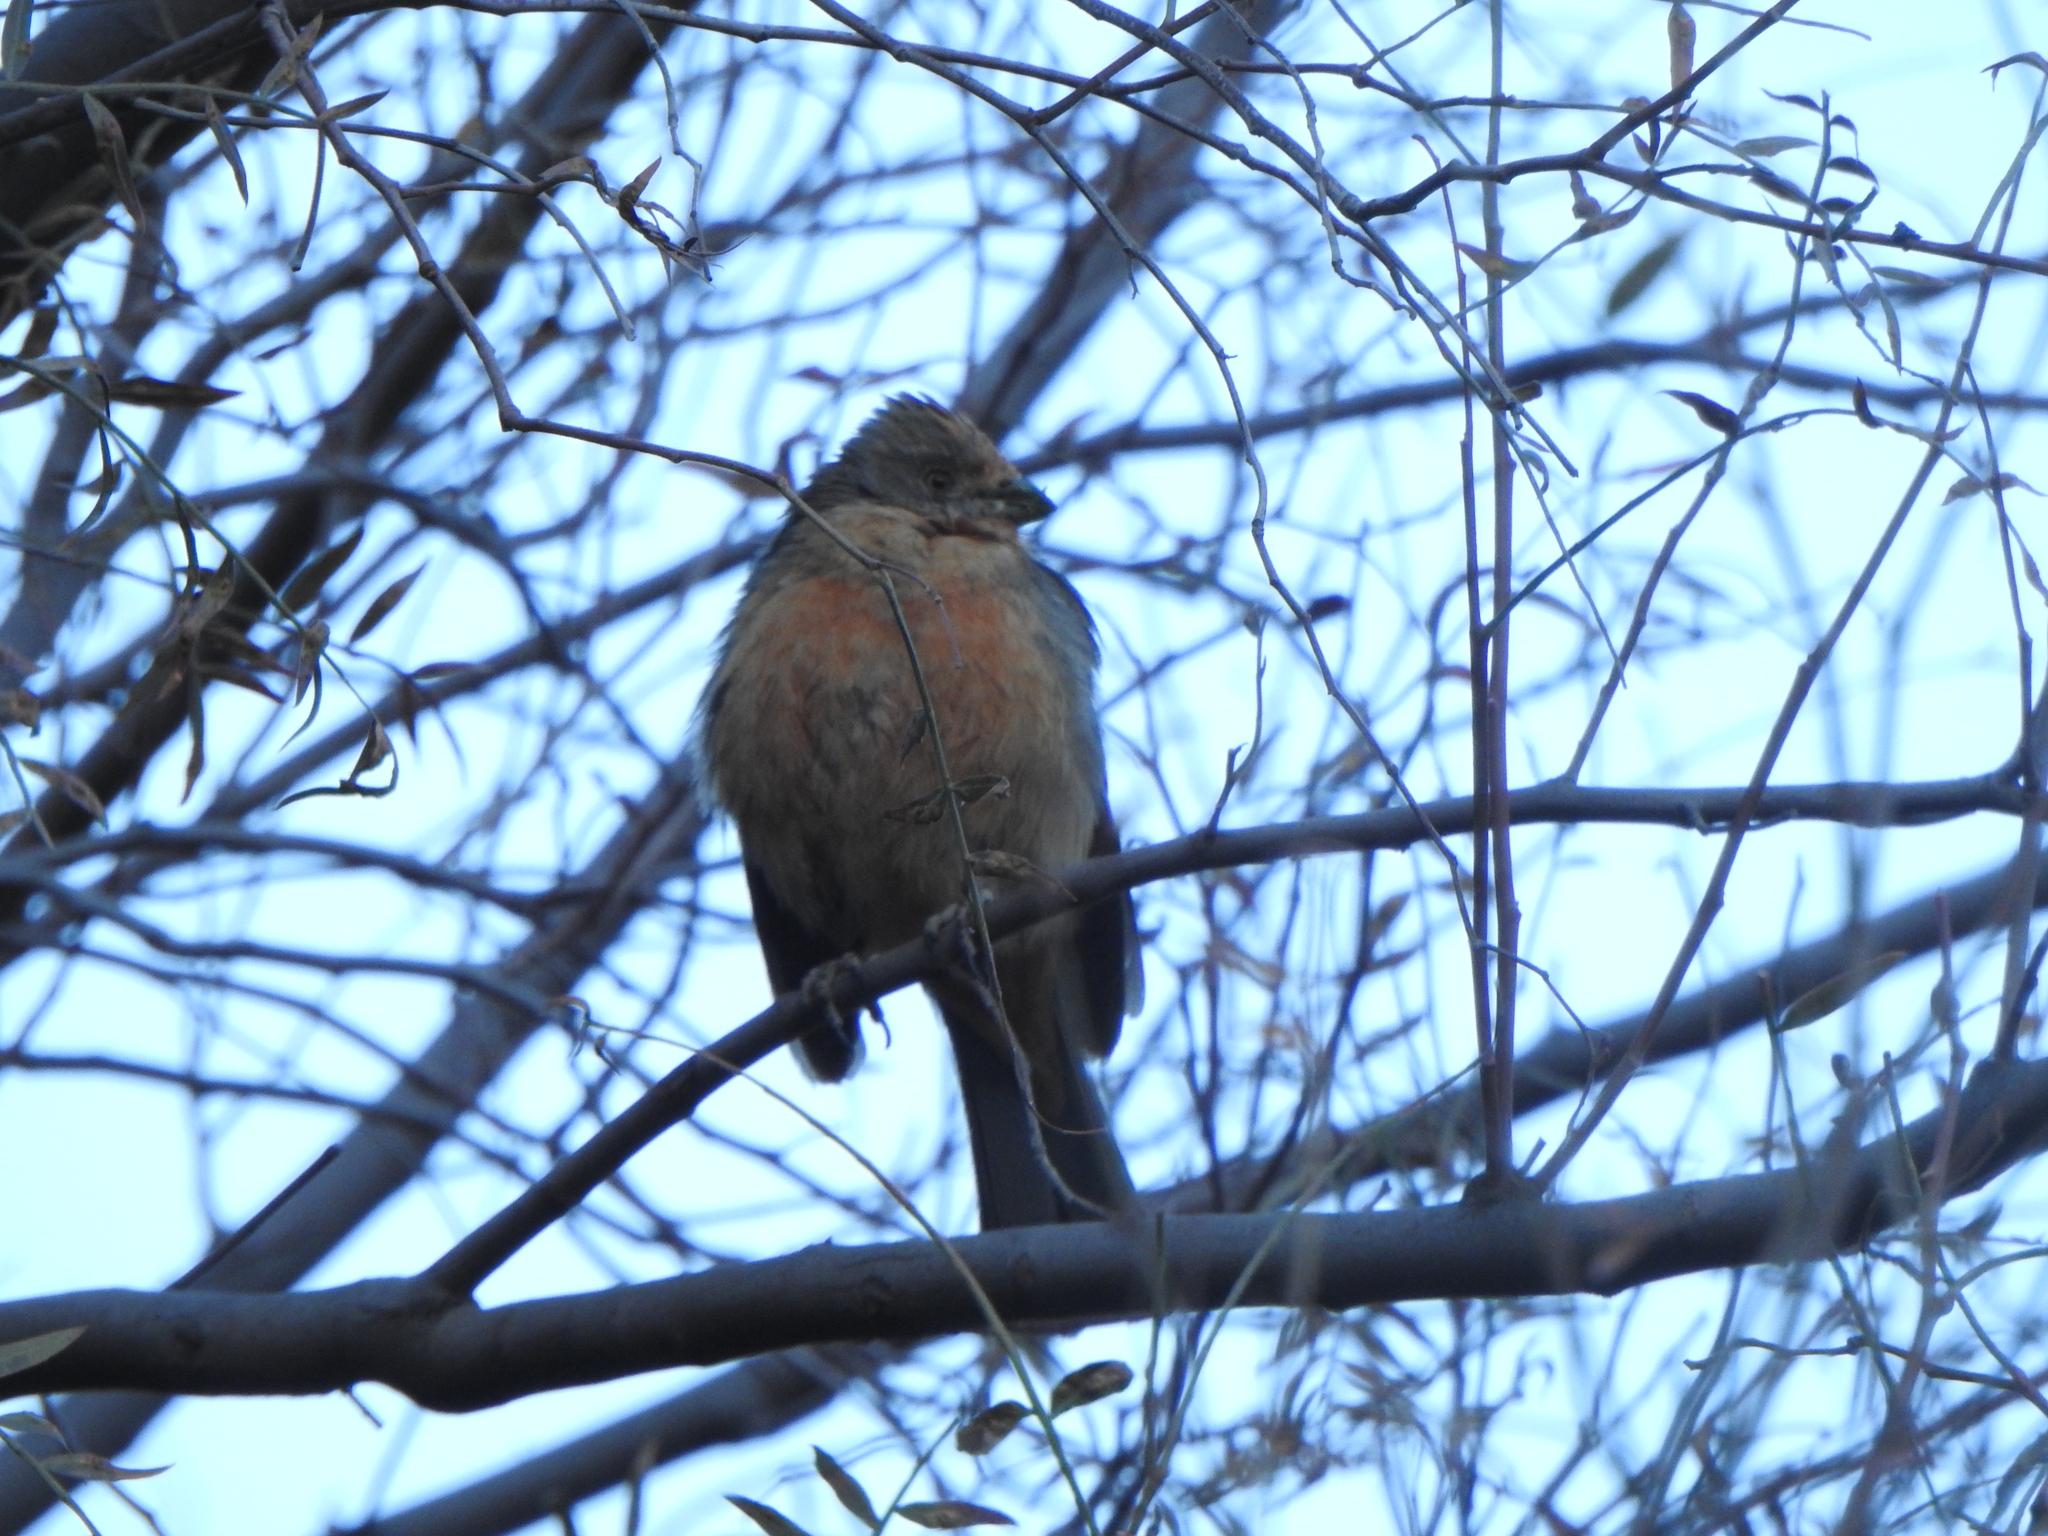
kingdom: Animalia
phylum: Chordata
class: Aves
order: Passeriformes
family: Cotingidae
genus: Phytotoma
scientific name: Phytotoma rutila
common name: White-tipped plantcutter
